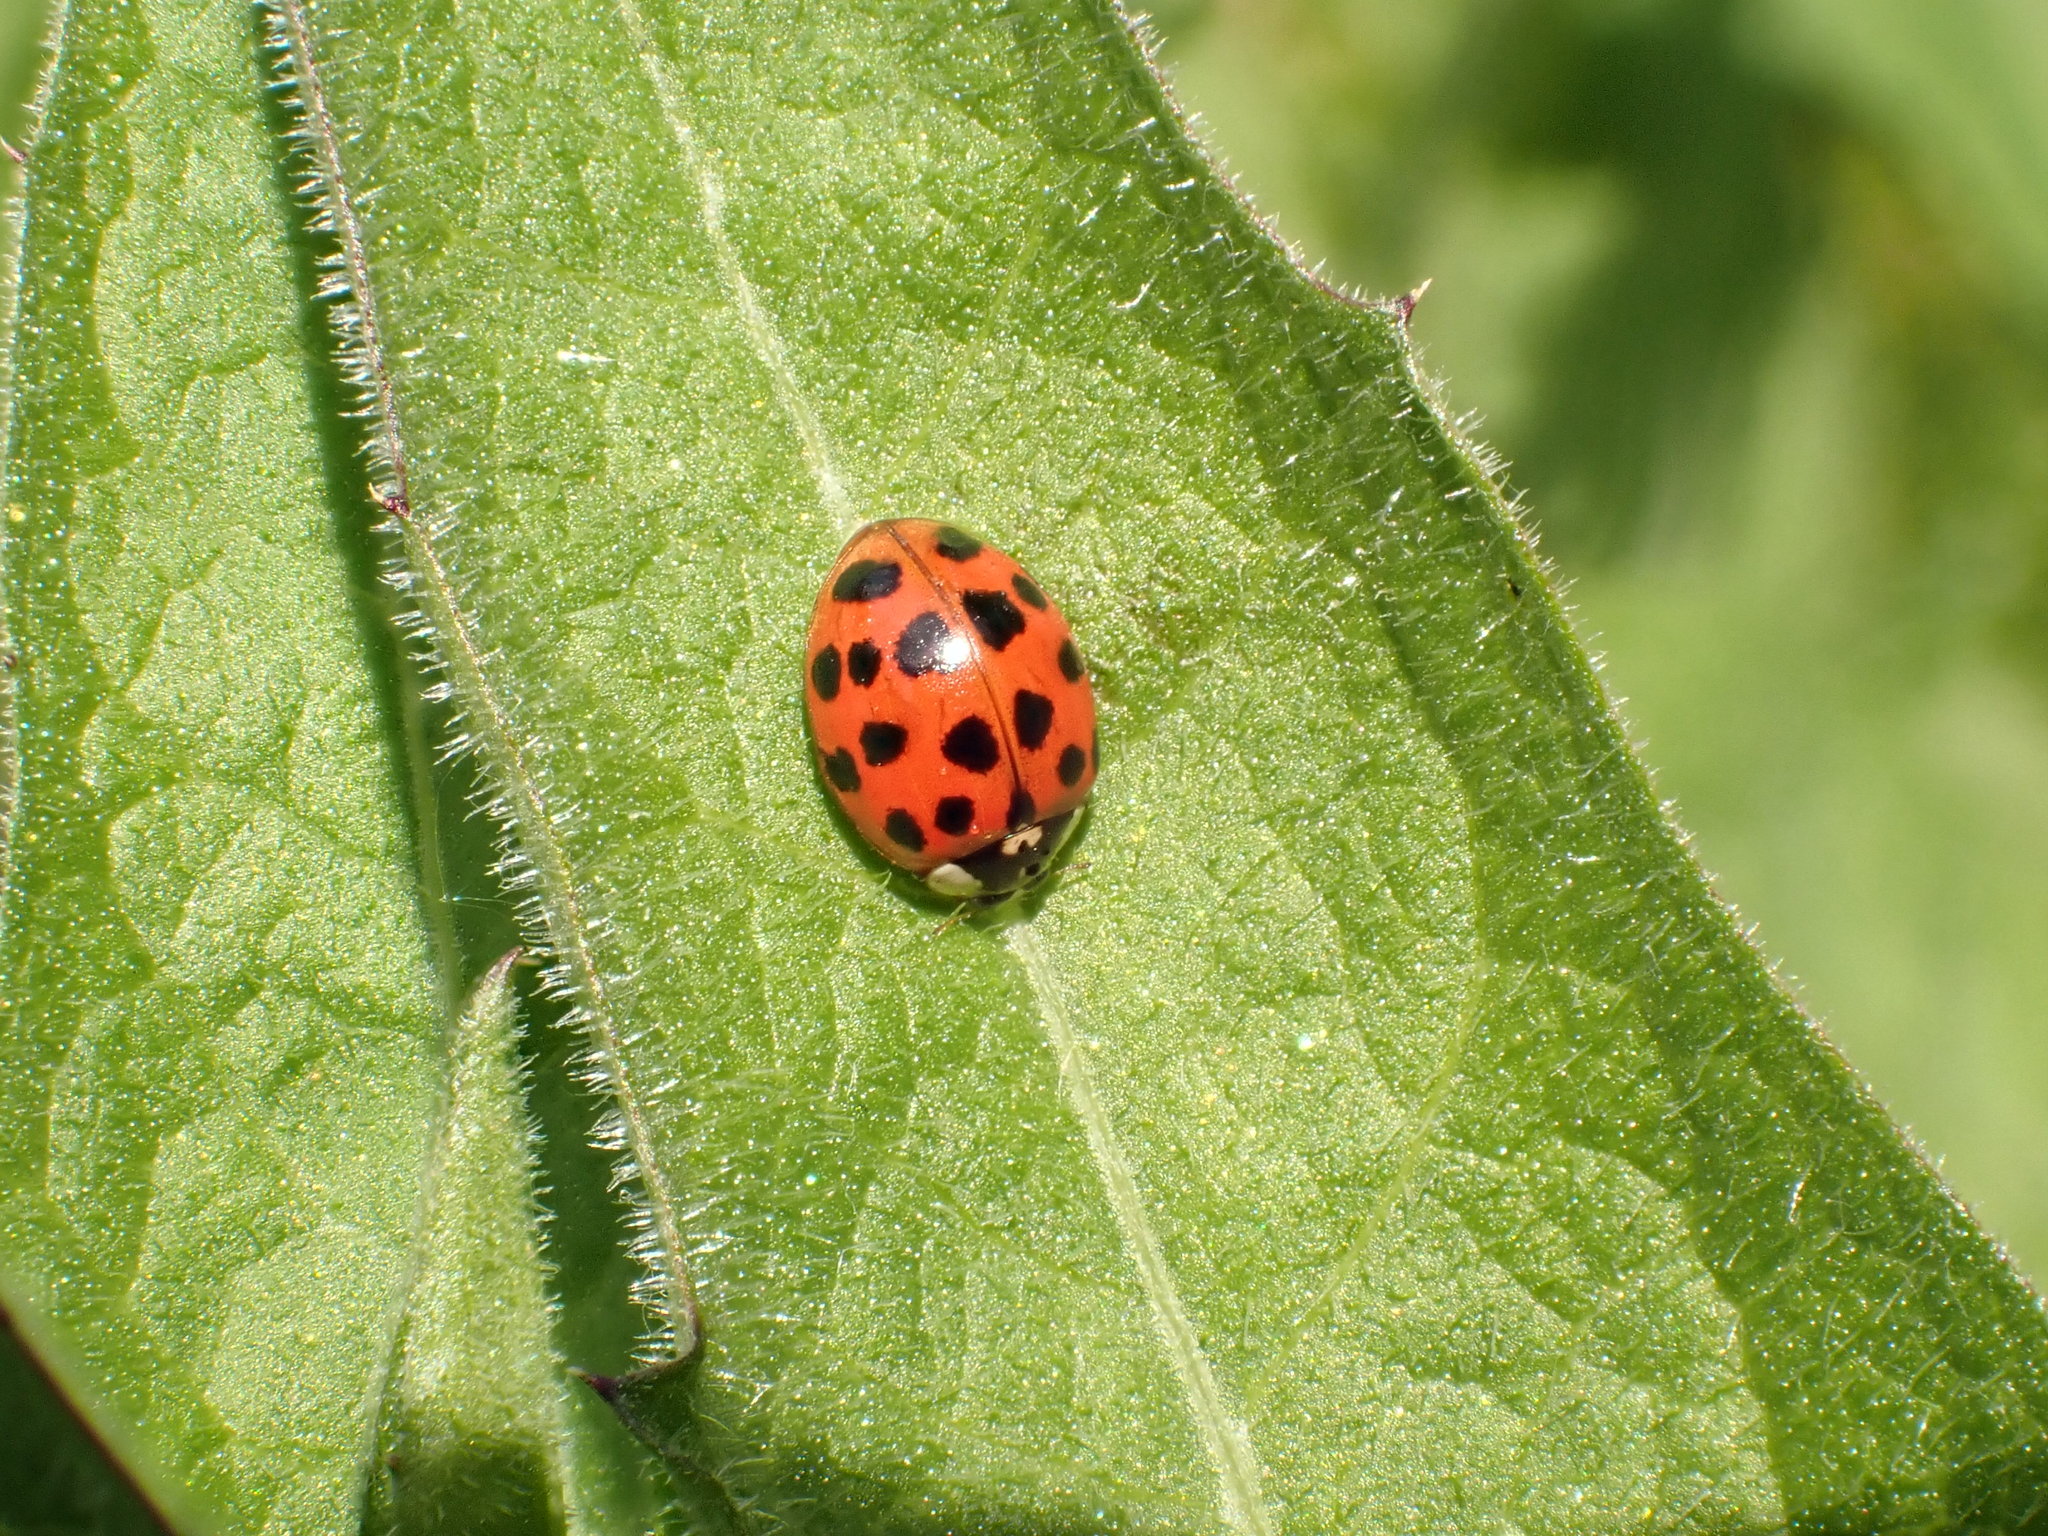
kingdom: Animalia
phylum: Arthropoda
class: Insecta
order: Coleoptera
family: Coccinellidae
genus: Harmonia
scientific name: Harmonia axyridis
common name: Harlequin ladybird
